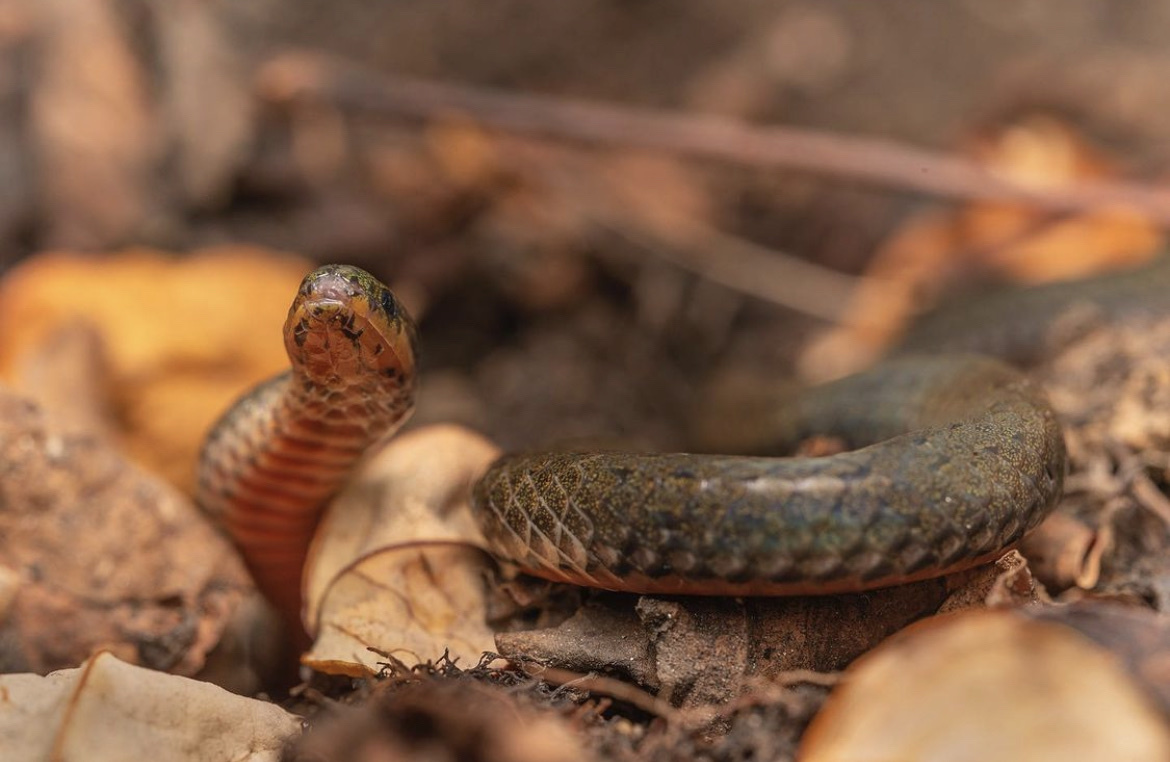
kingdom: Animalia
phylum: Chordata
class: Squamata
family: Colubridae
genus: Calamaria
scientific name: Calamaria septentrionalis
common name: Hong kong dwarf snake
